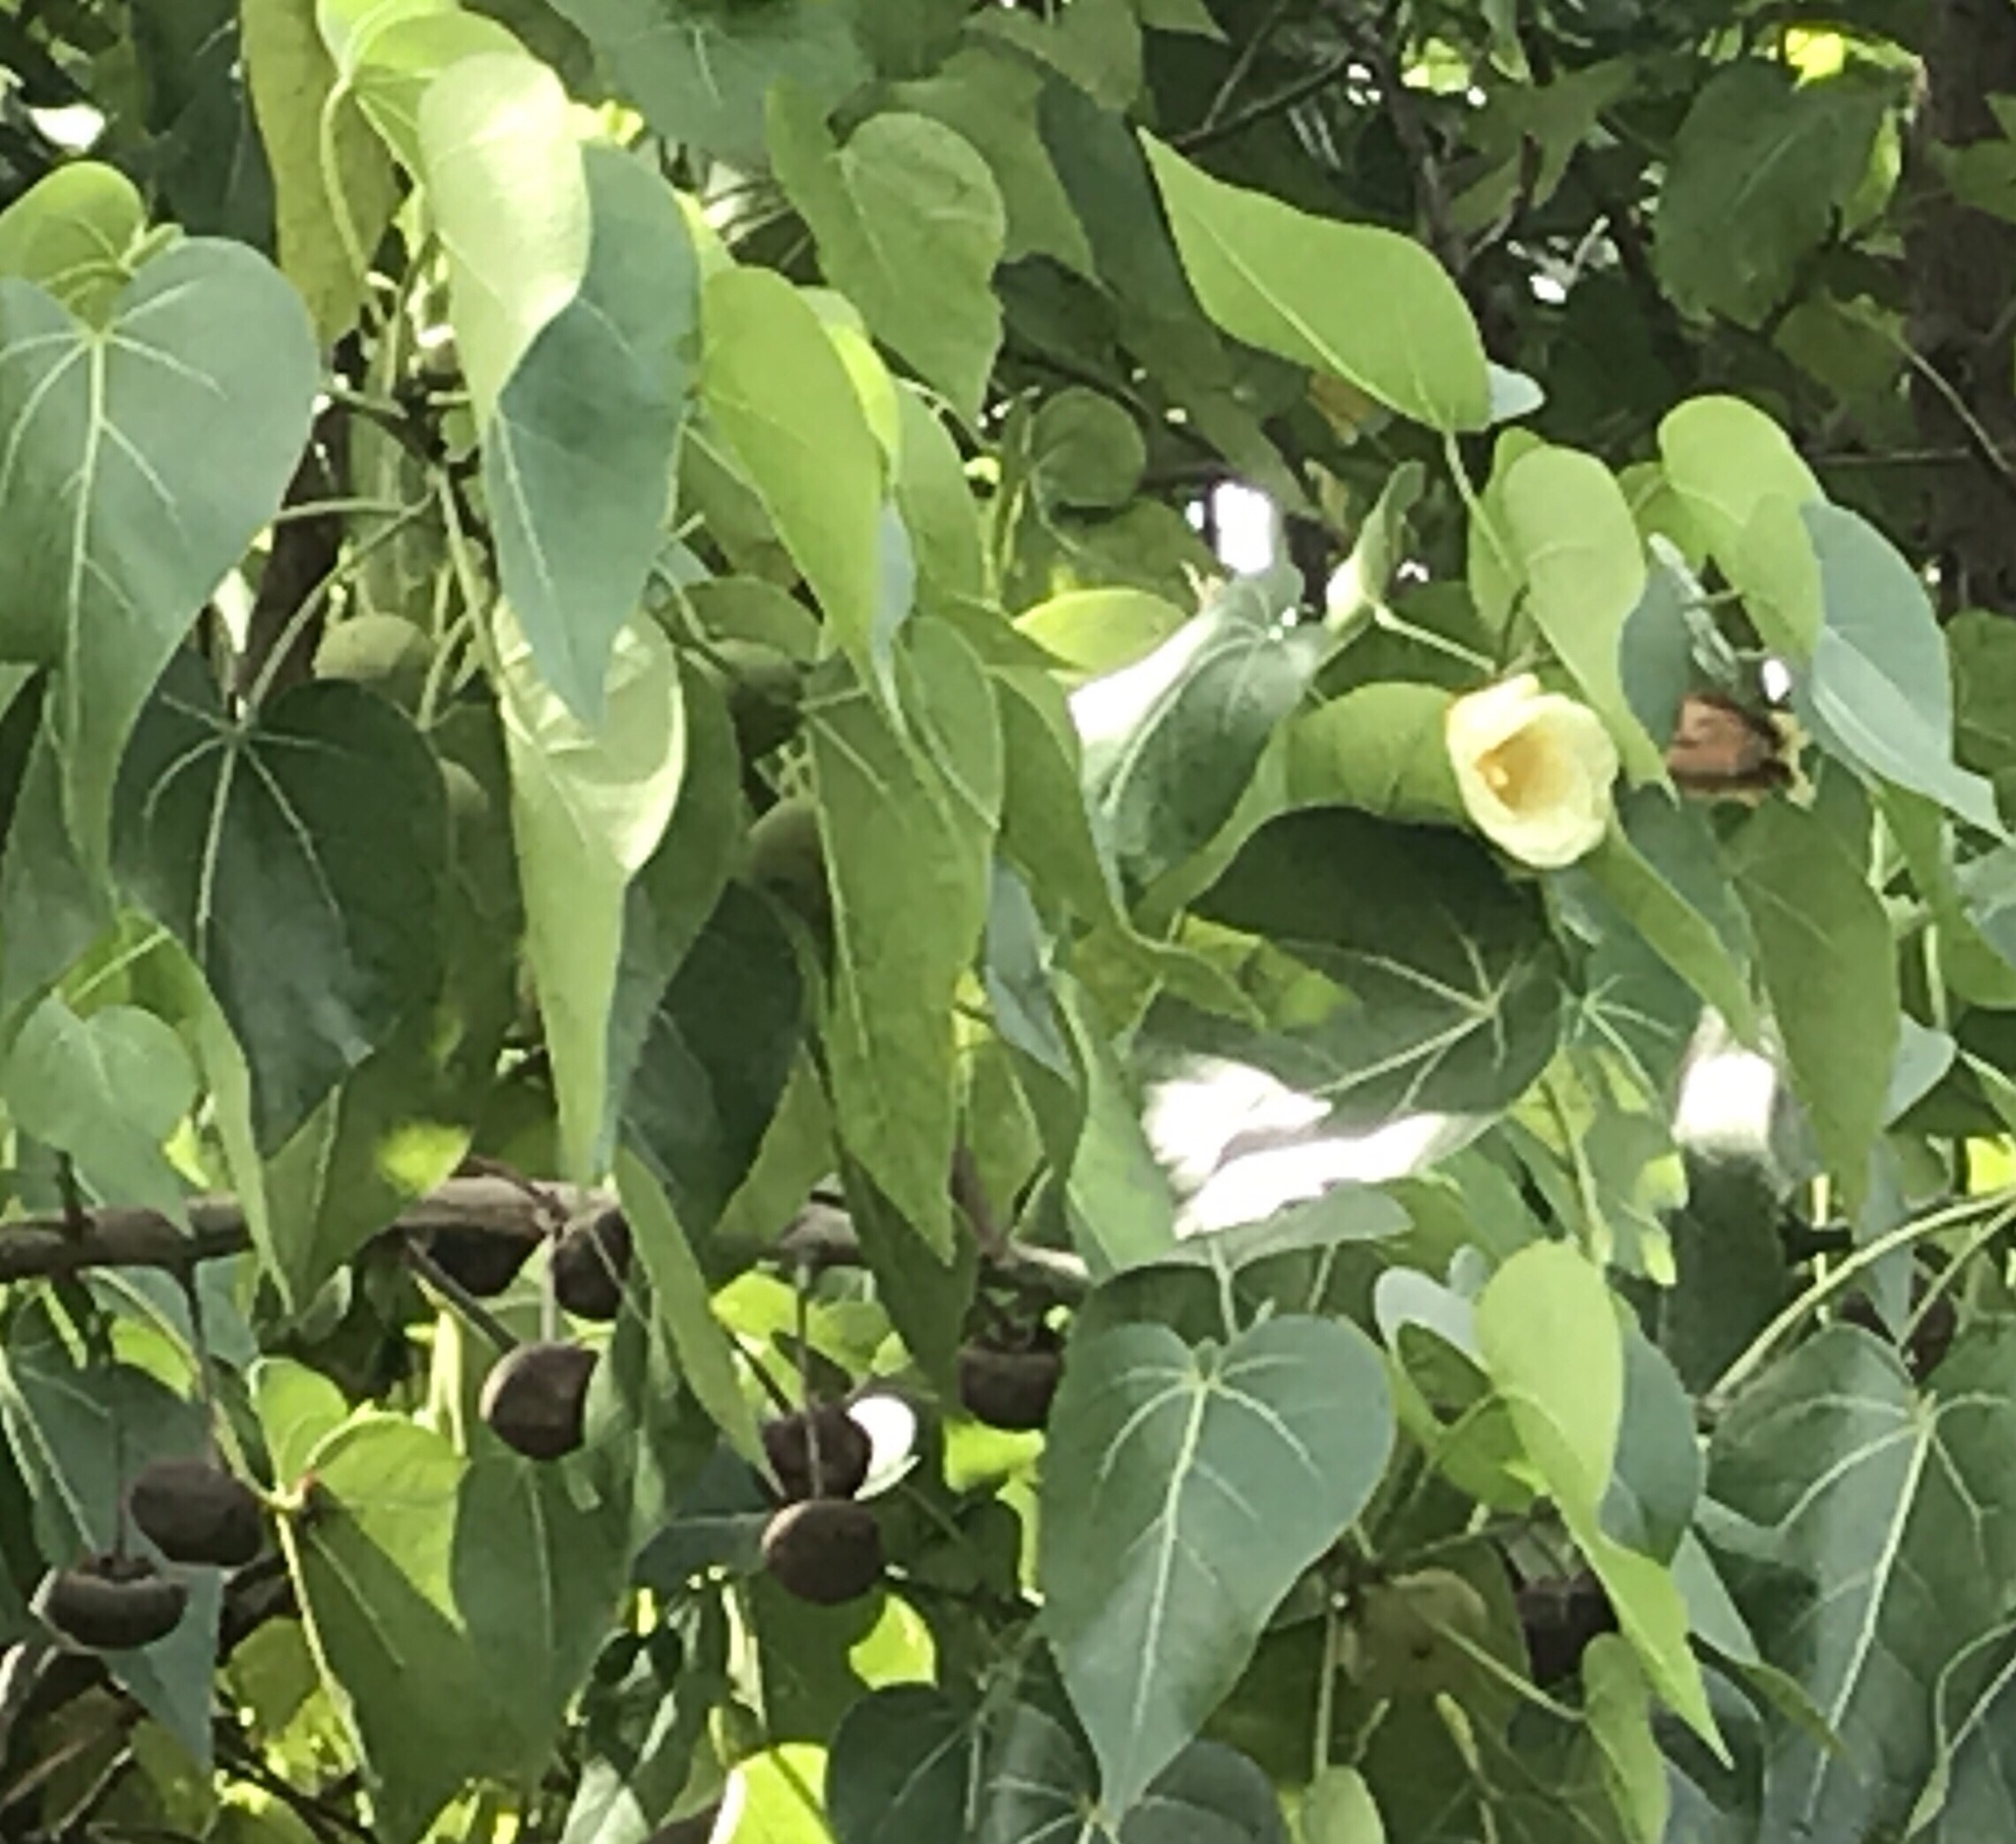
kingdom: Plantae
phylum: Tracheophyta
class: Magnoliopsida
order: Malvales
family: Malvaceae
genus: Thespesia
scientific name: Thespesia populnea
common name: Seaside mahoe
